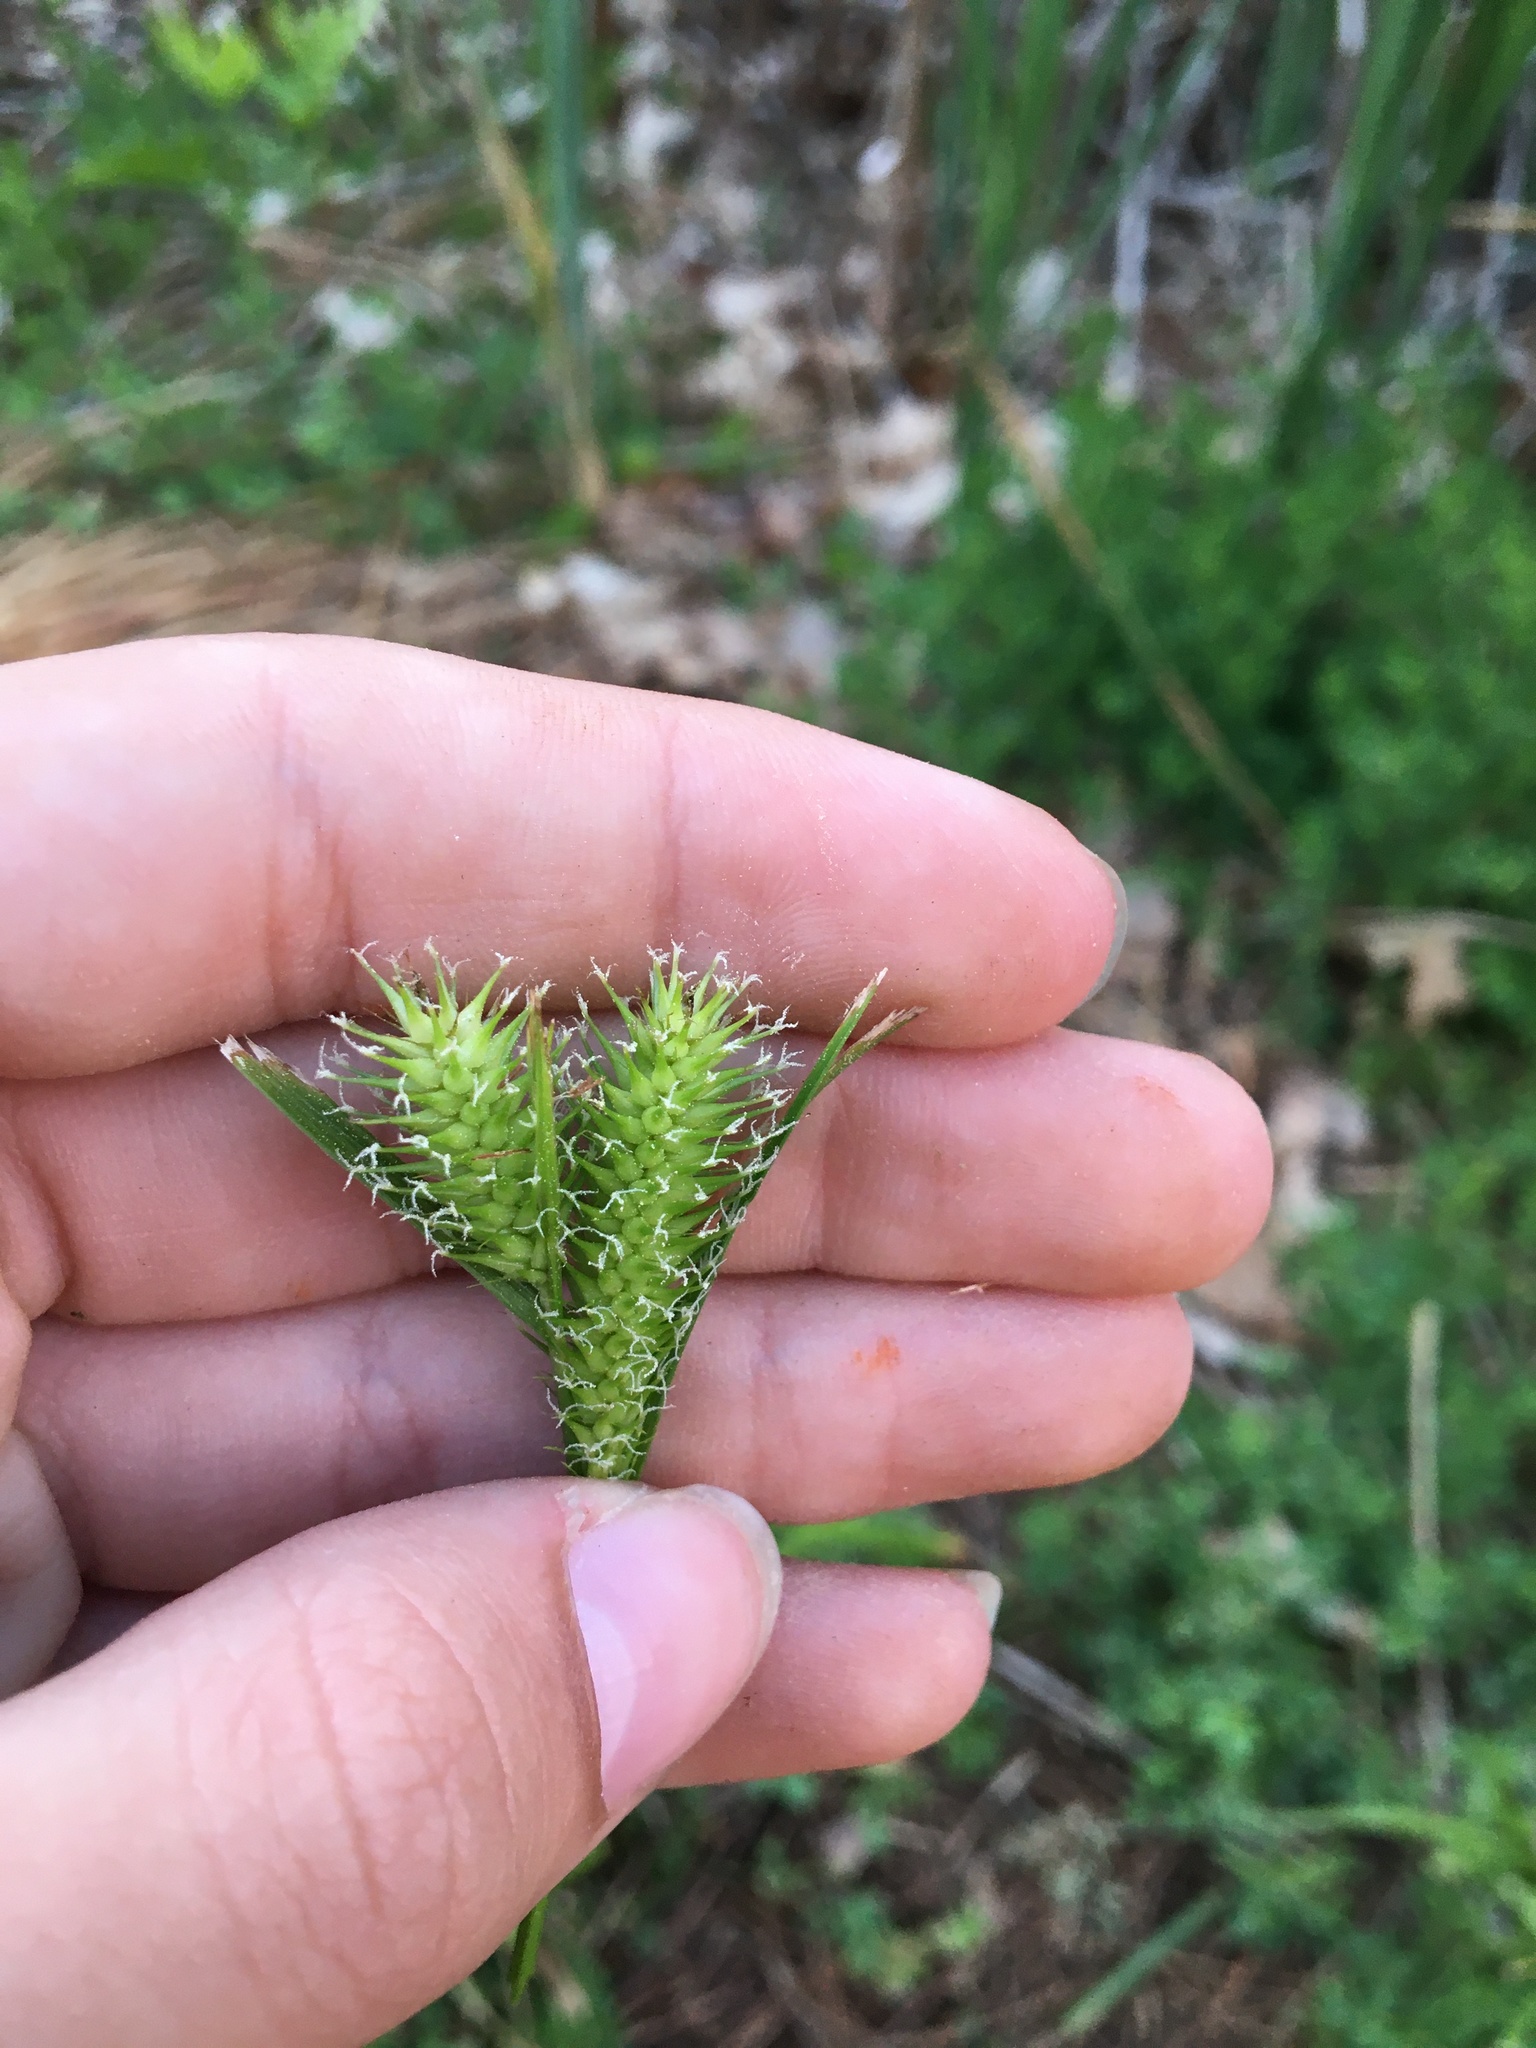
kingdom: Plantae
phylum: Tracheophyta
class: Liliopsida
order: Poales
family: Cyperaceae
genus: Carex
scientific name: Carex lurida
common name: Sallow sedge
